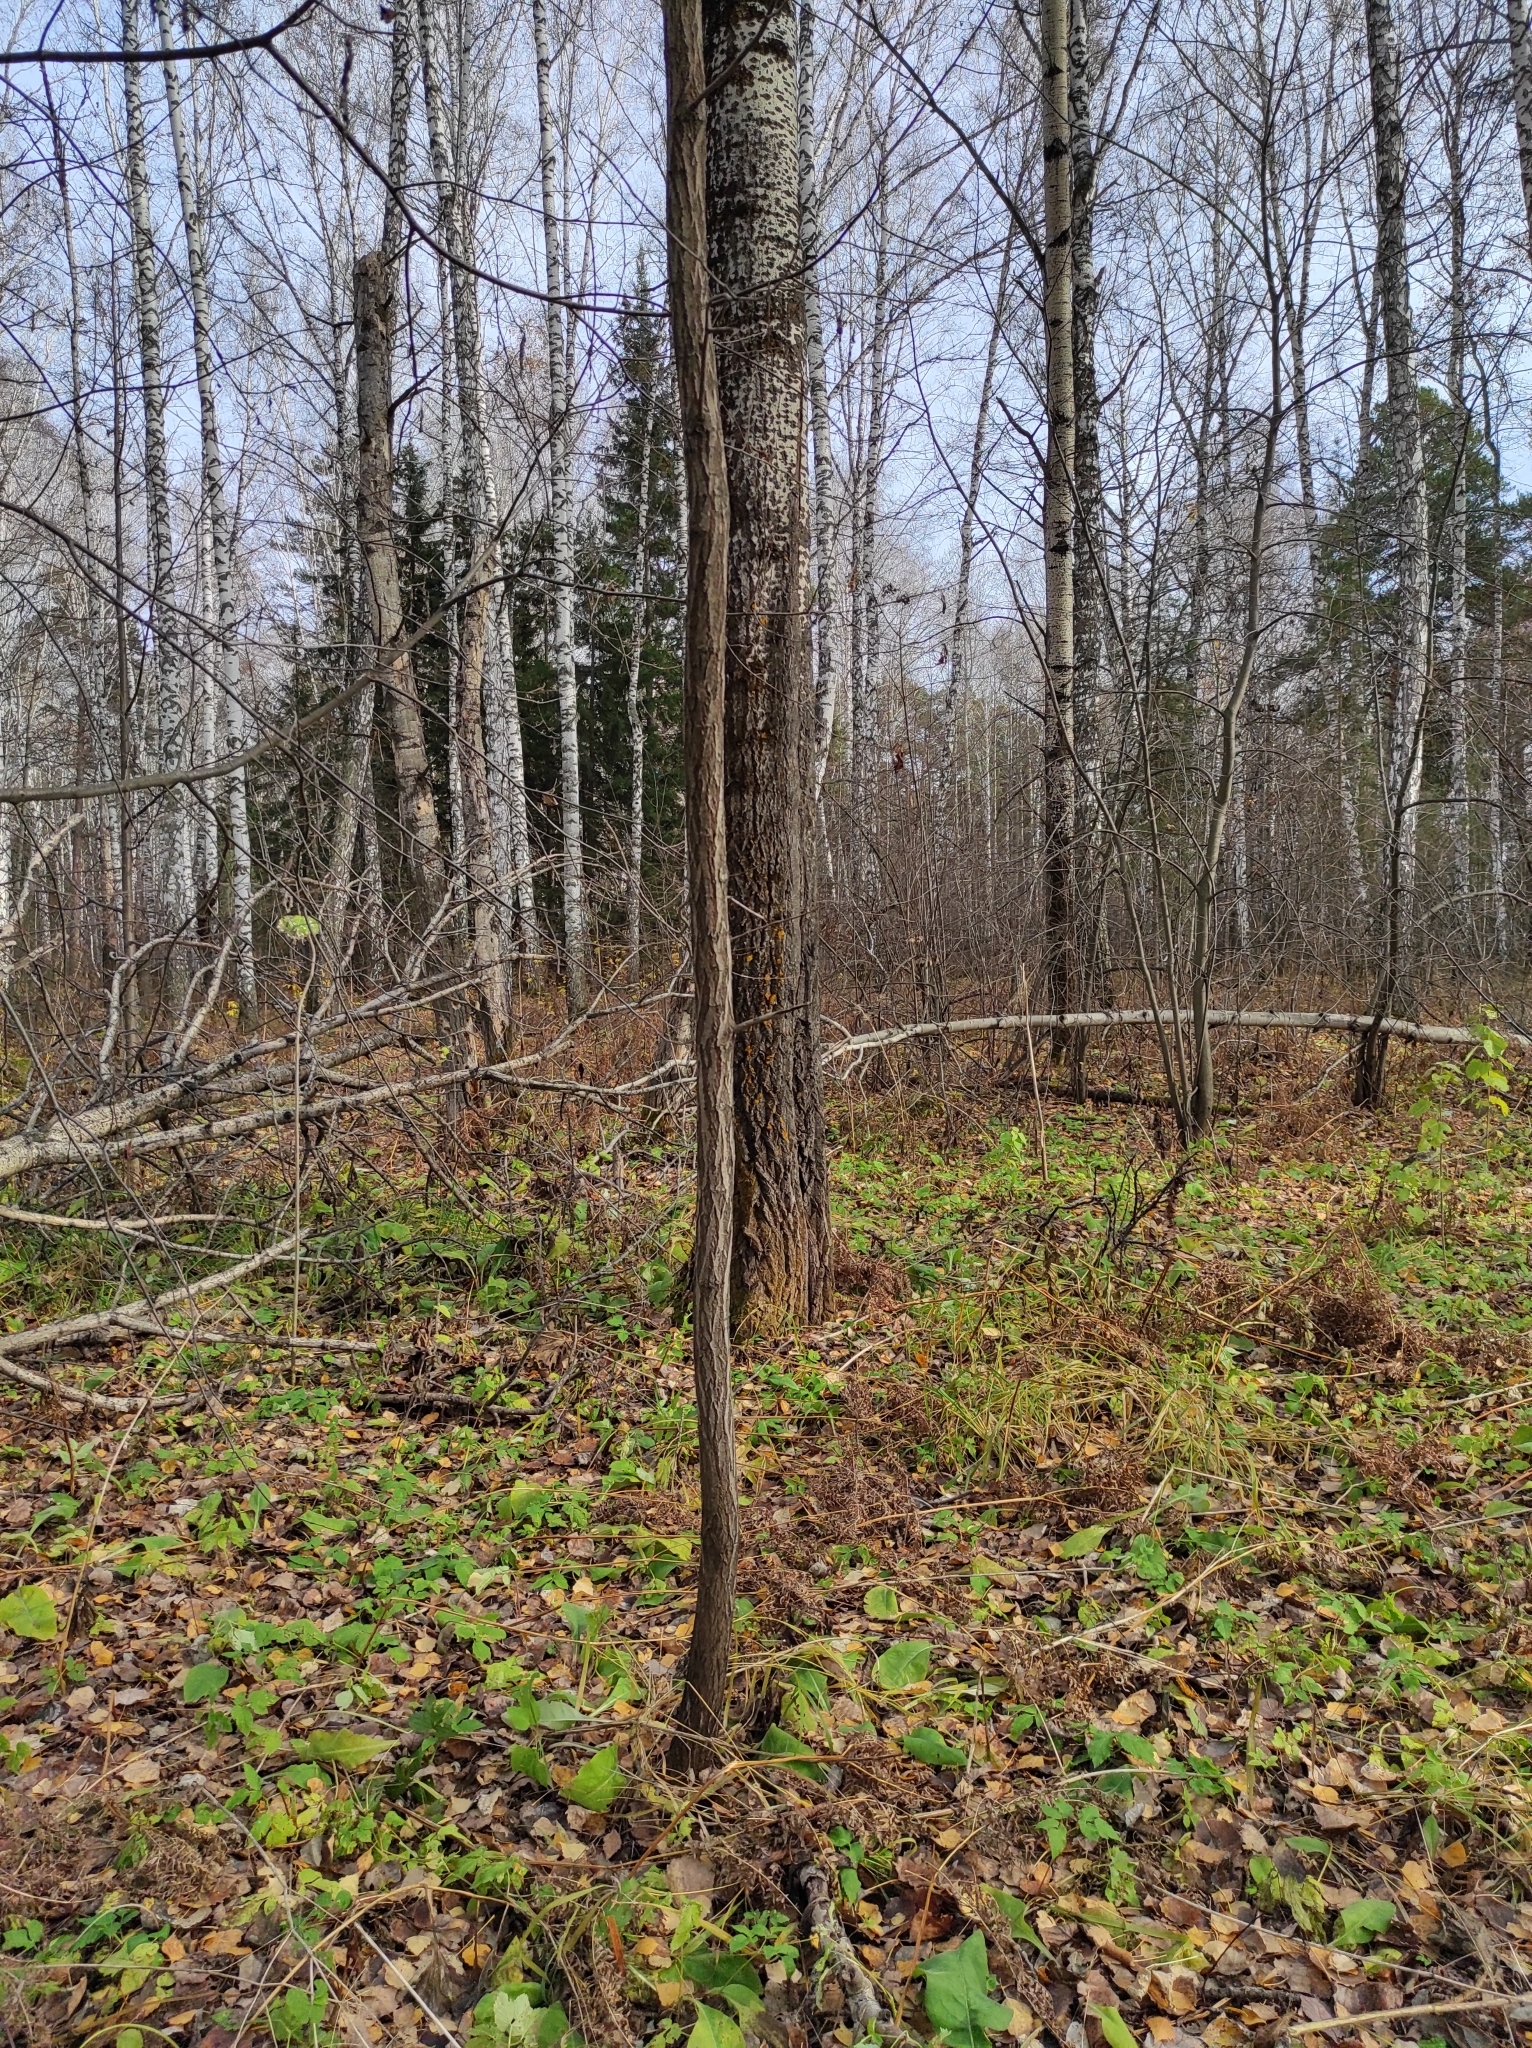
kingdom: Plantae
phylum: Tracheophyta
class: Magnoliopsida
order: Malpighiales
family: Salicaceae
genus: Populus
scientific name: Populus tremula
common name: European aspen
